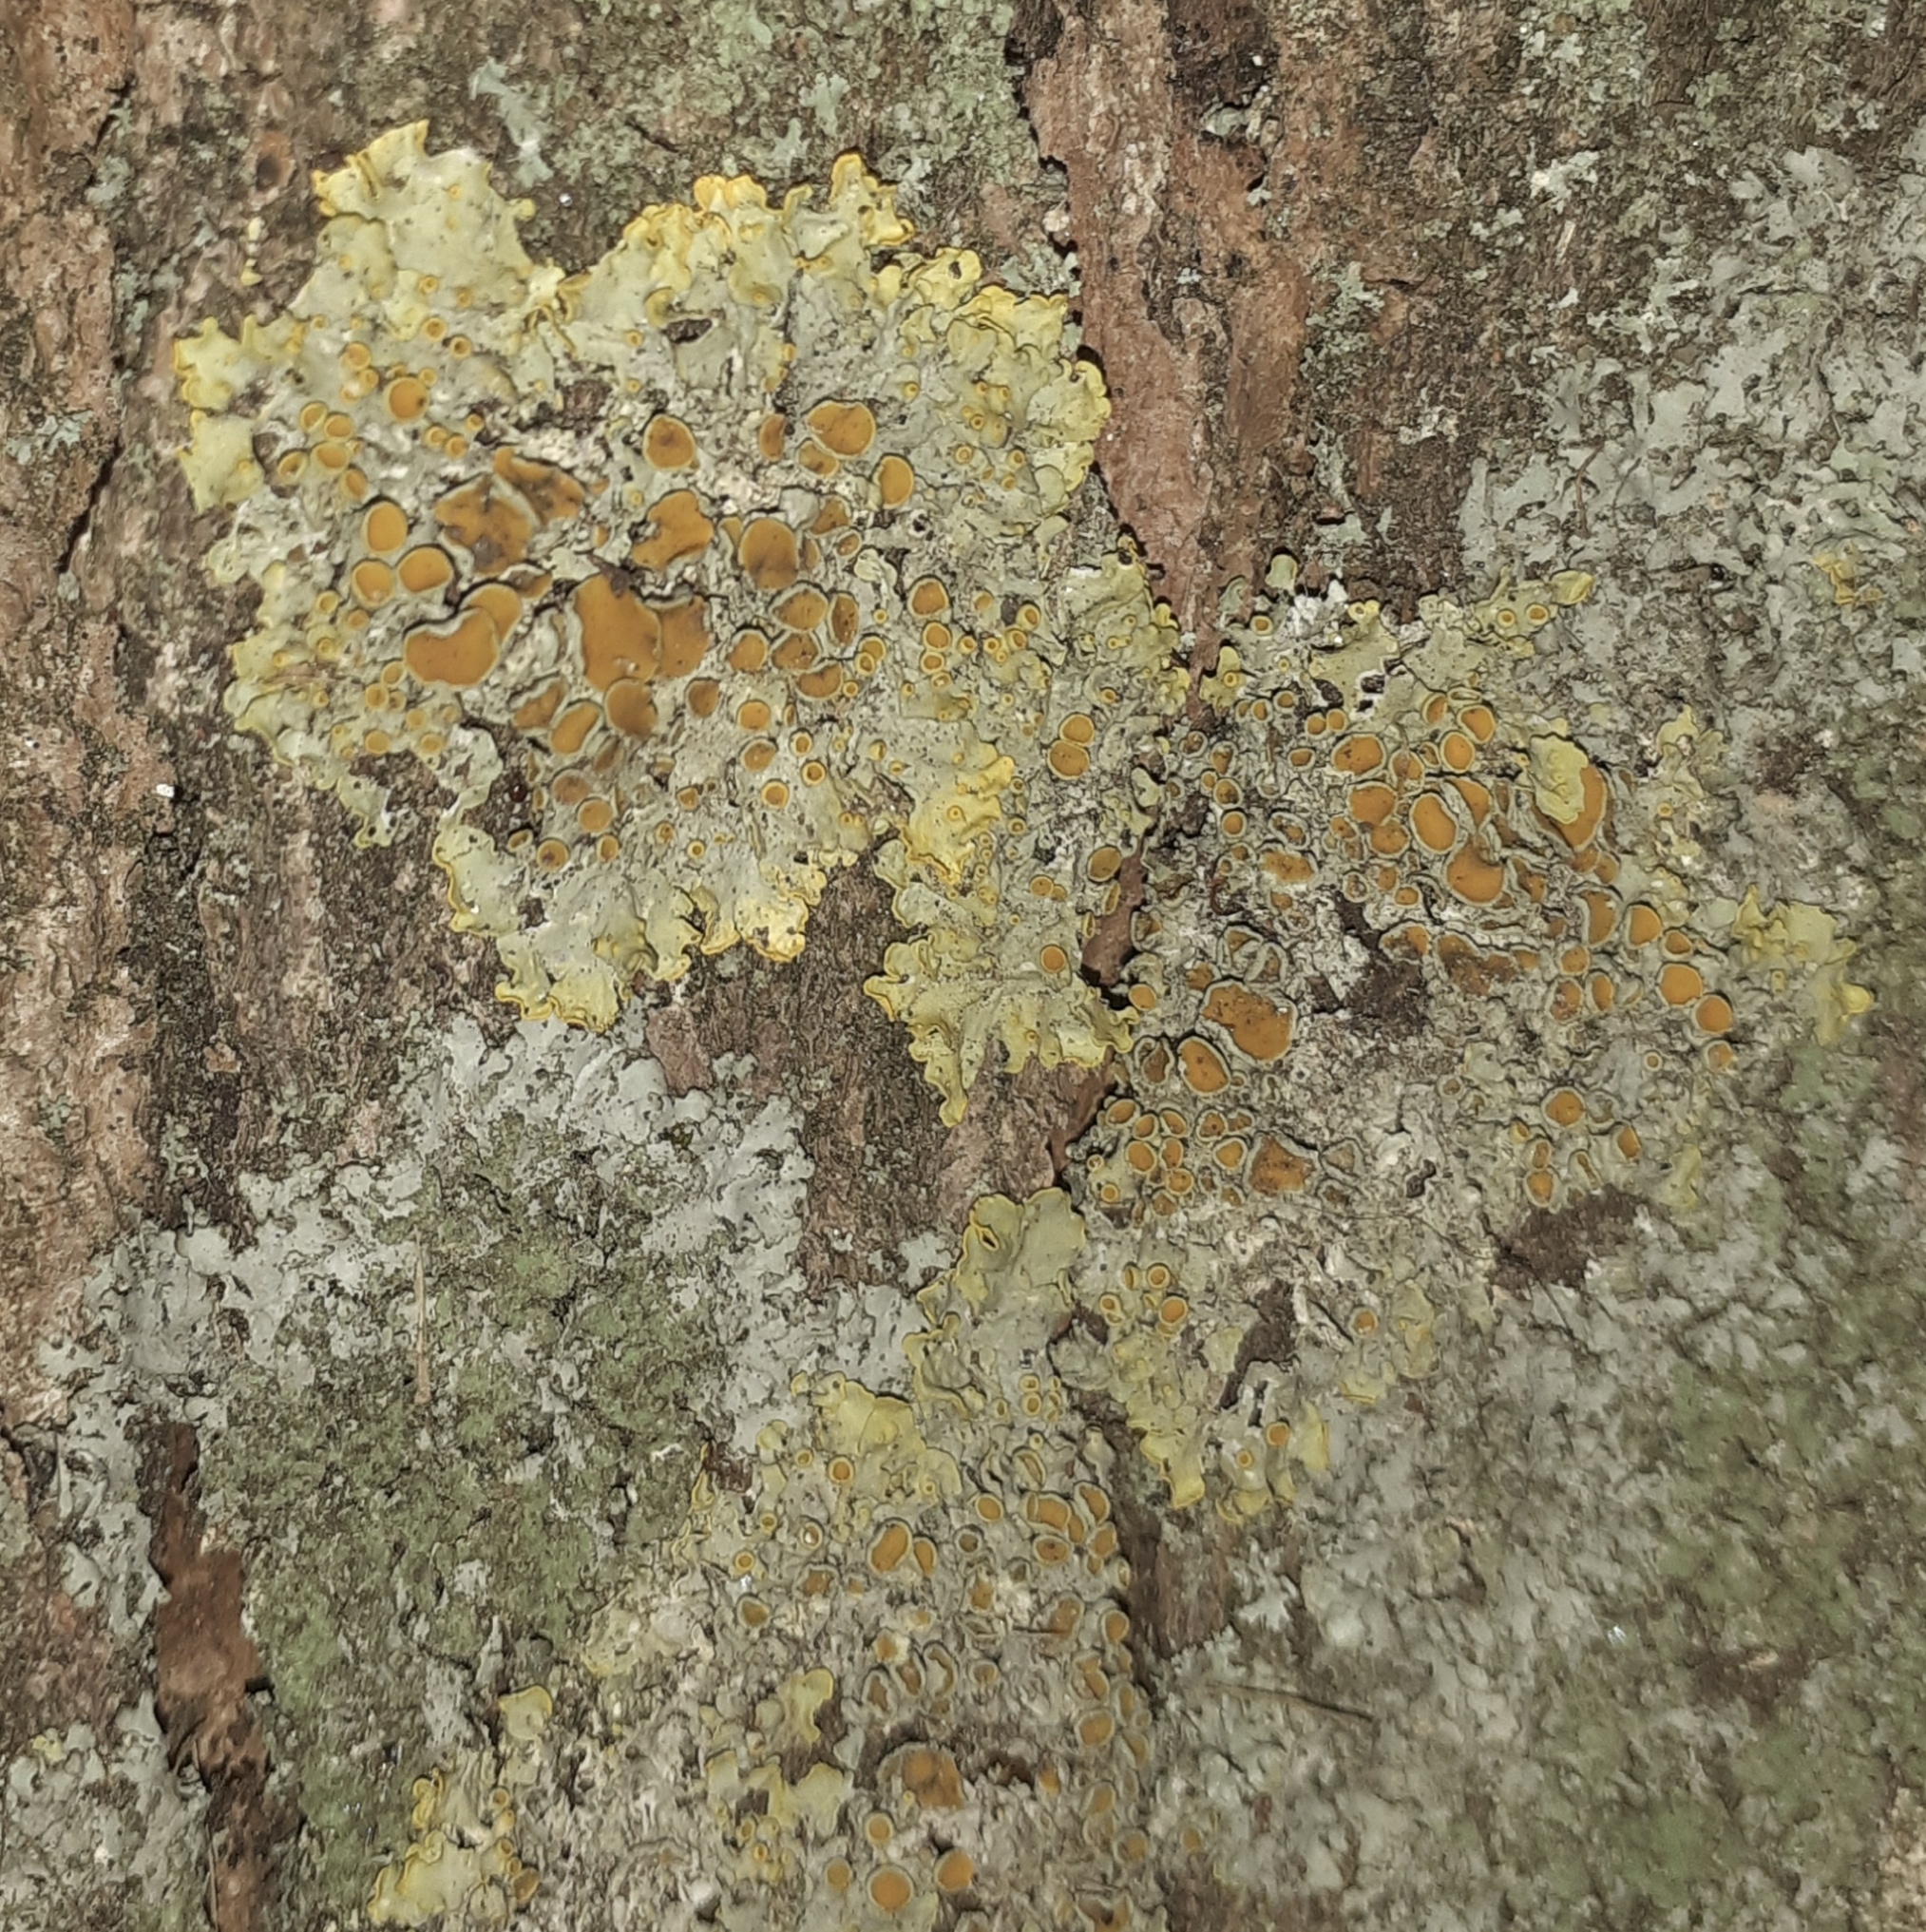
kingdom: Fungi
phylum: Ascomycota
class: Lecanoromycetes
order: Teloschistales
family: Teloschistaceae
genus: Xanthoria
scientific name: Xanthoria parietina
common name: Common orange lichen
